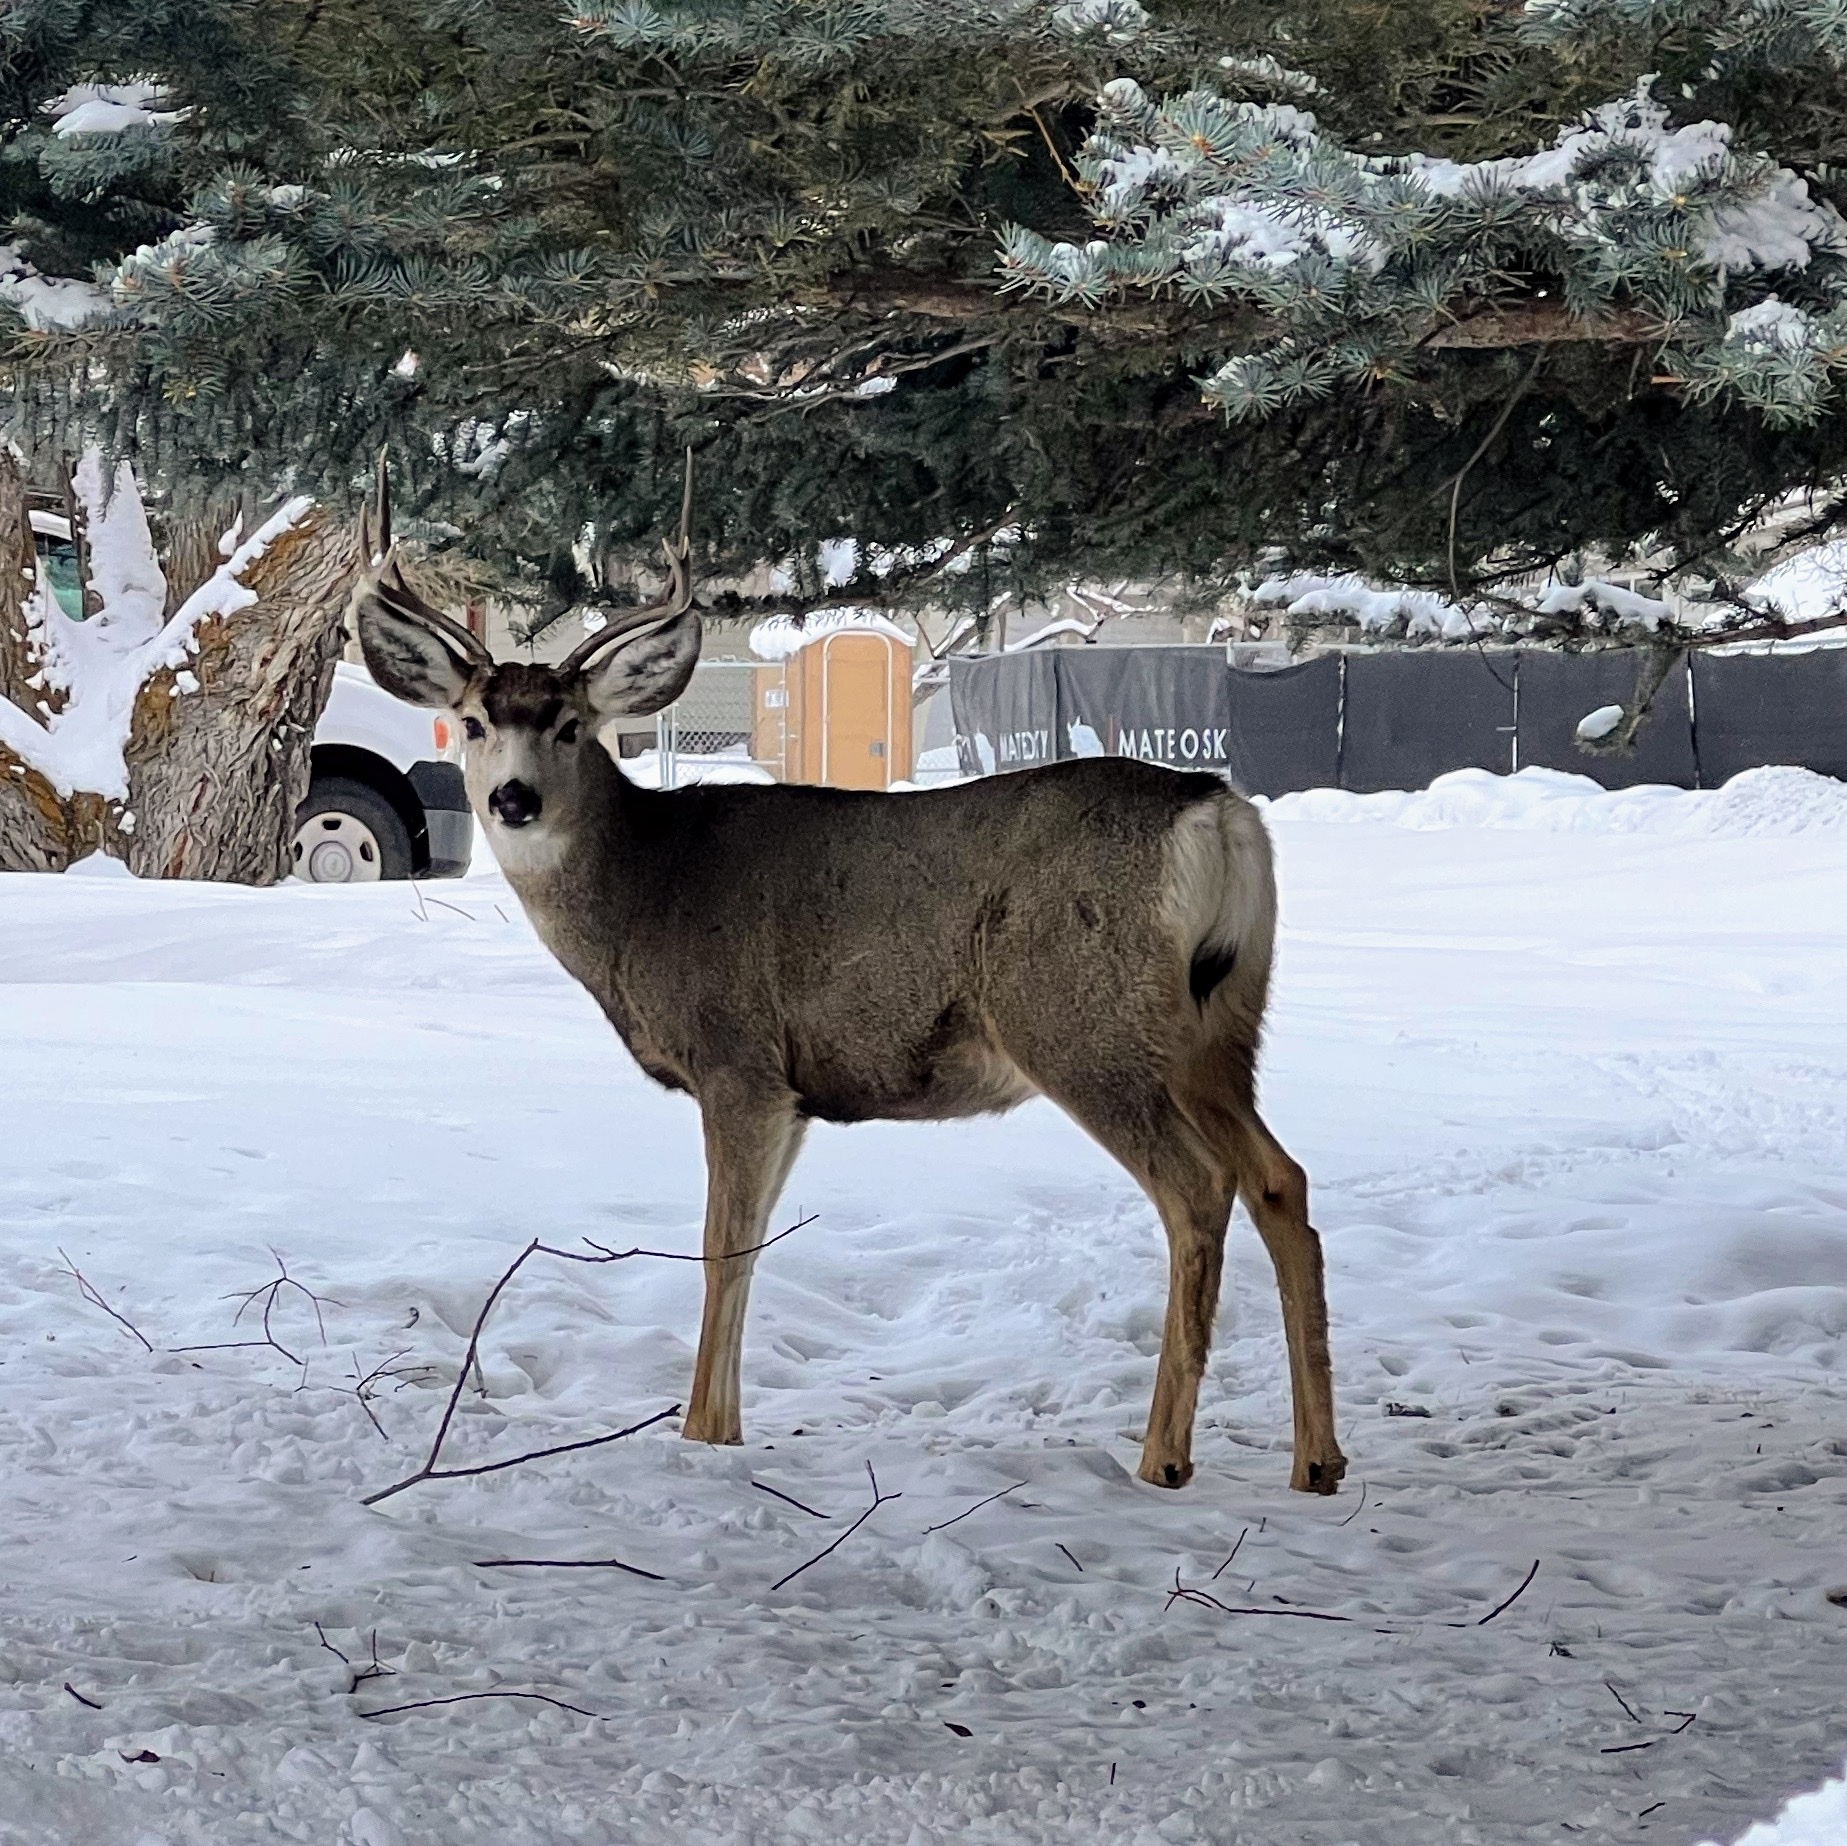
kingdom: Animalia
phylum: Chordata
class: Mammalia
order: Artiodactyla
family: Cervidae
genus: Odocoileus
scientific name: Odocoileus hemionus
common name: Mule deer
